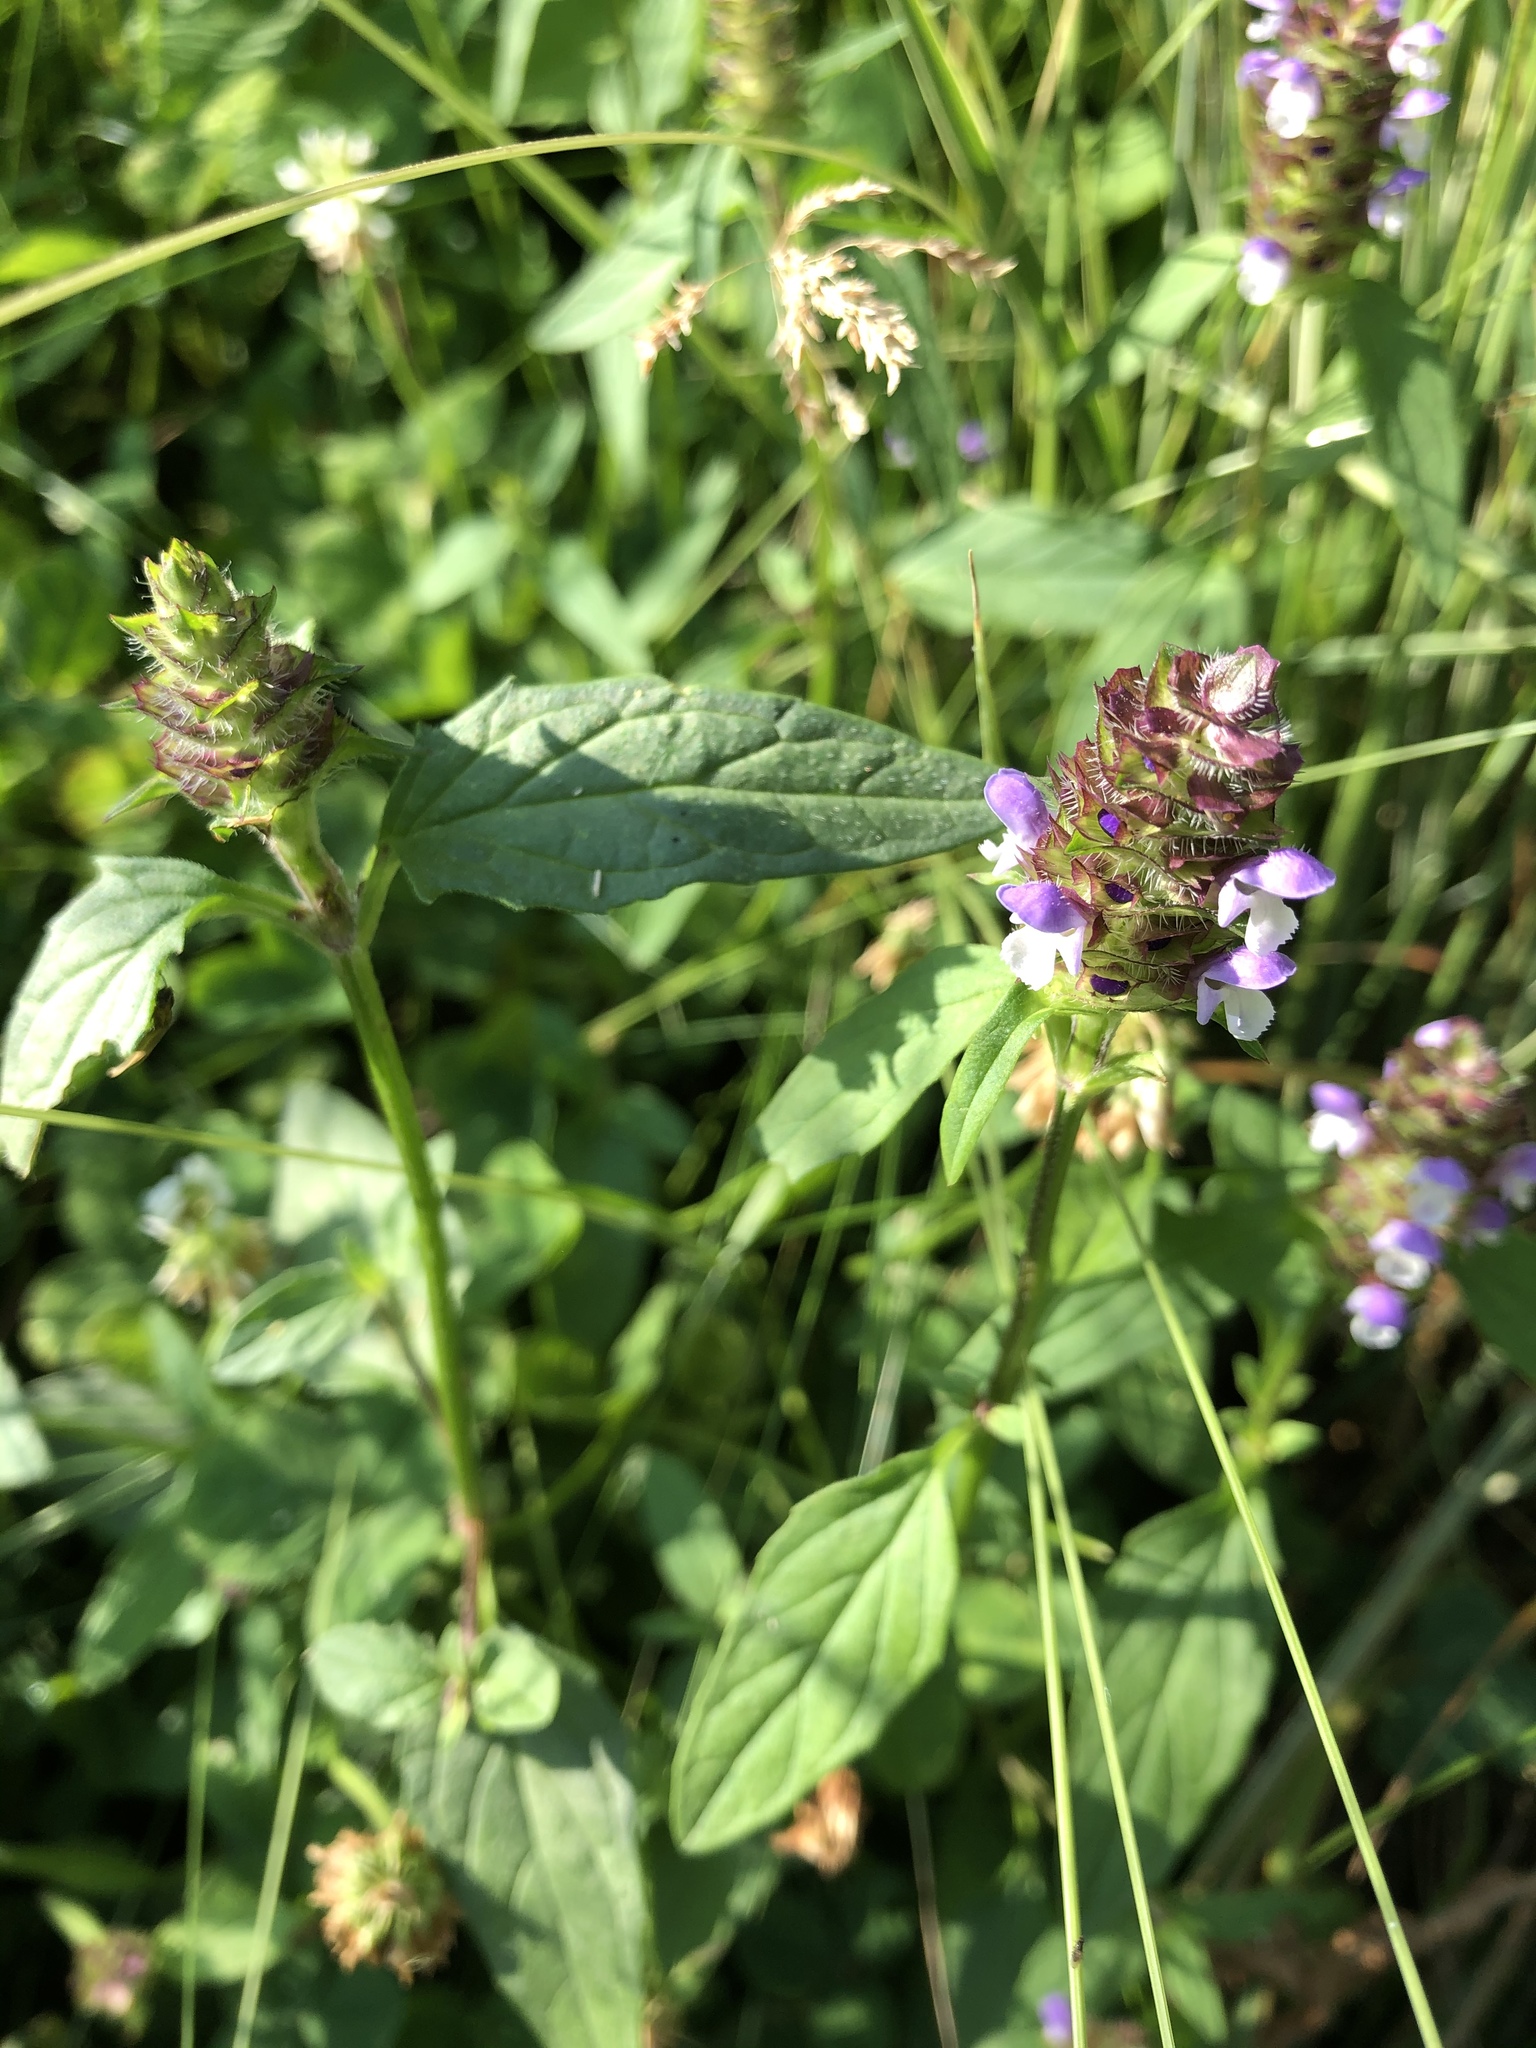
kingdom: Plantae
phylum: Tracheophyta
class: Magnoliopsida
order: Lamiales
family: Lamiaceae
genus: Prunella
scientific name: Prunella vulgaris
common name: Heal-all
